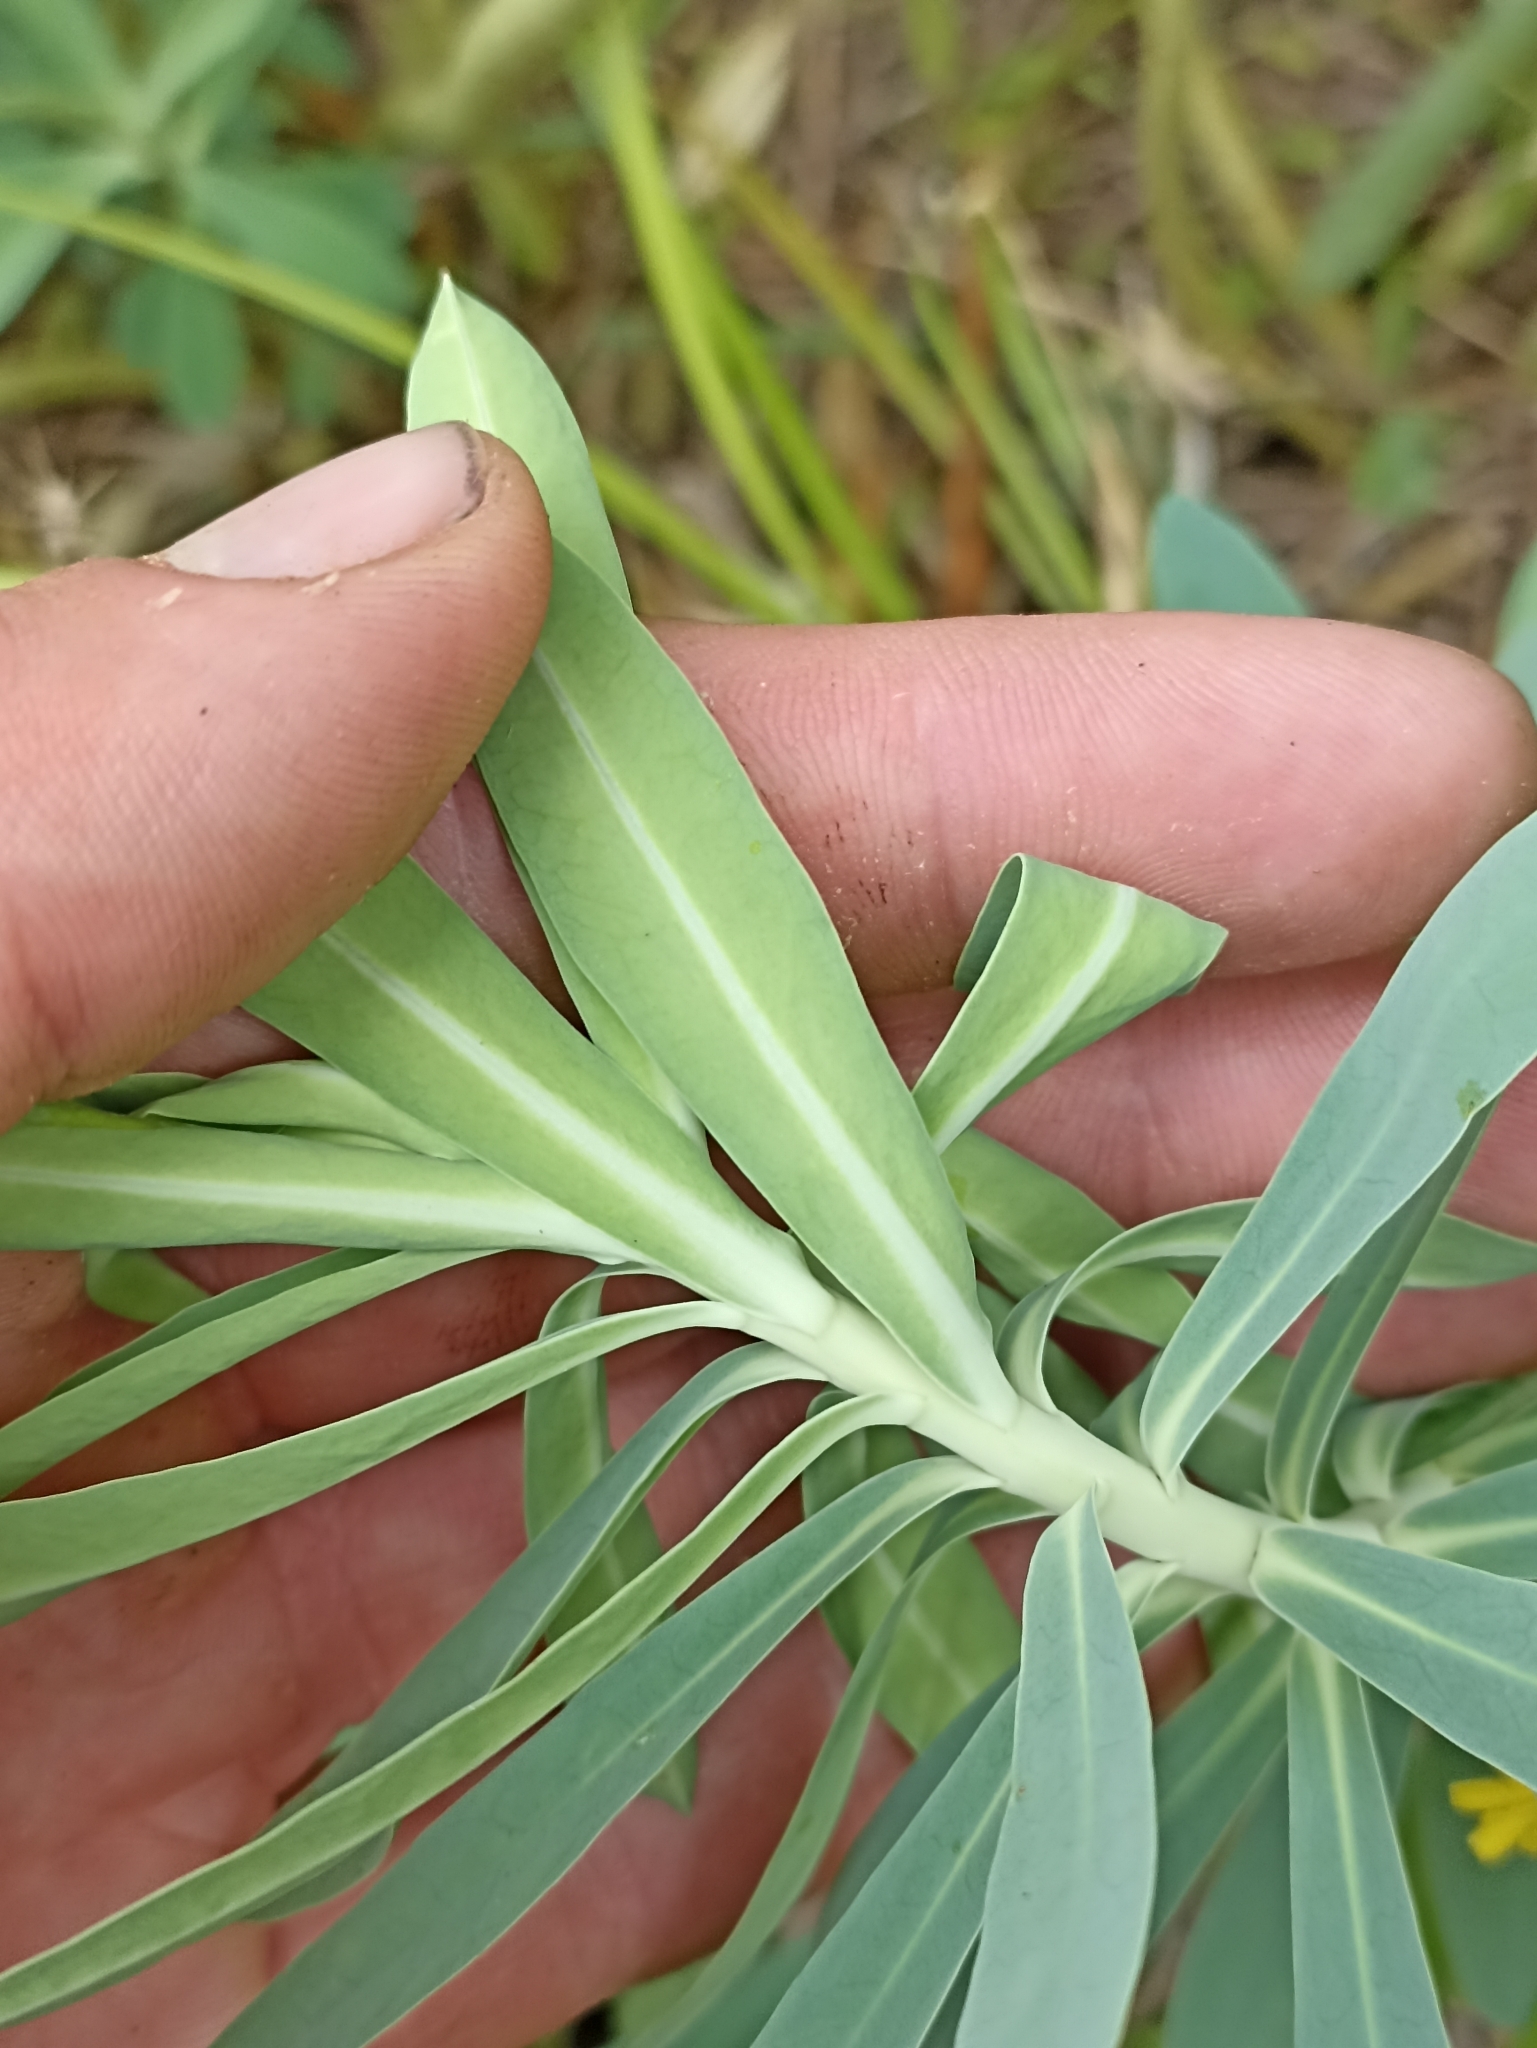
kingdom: Plantae
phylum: Tracheophyta
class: Magnoliopsida
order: Malpighiales
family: Euphorbiaceae
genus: Euphorbia
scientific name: Euphorbia glauca
